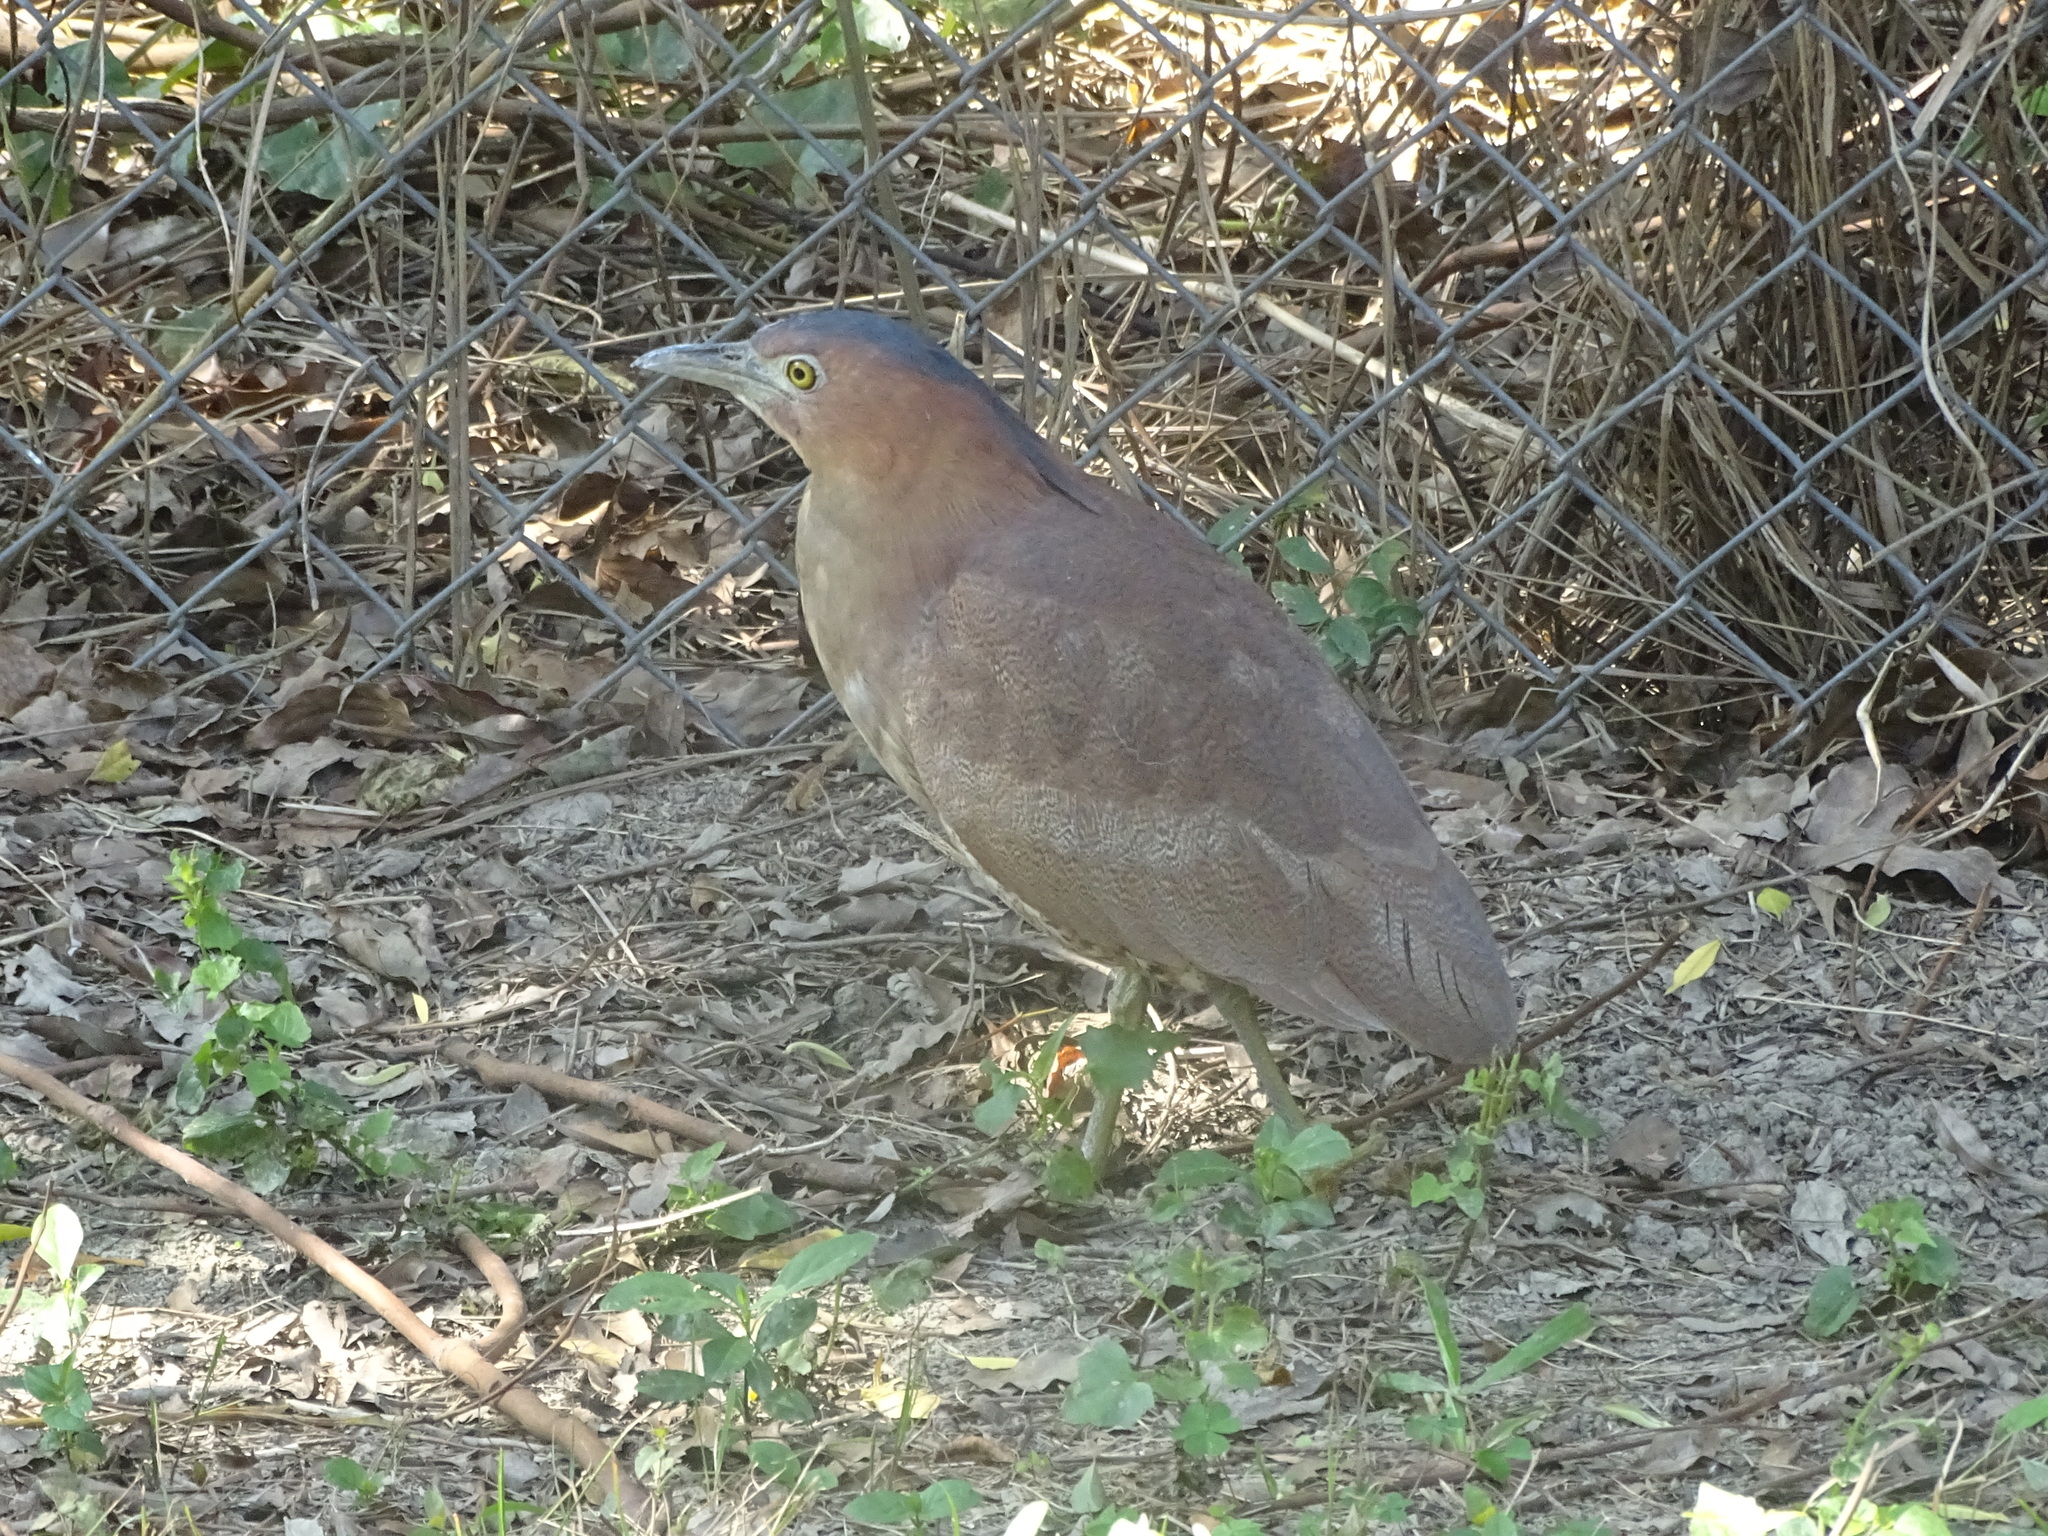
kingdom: Animalia
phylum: Chordata
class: Aves
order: Pelecaniformes
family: Ardeidae
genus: Gorsachius
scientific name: Gorsachius melanolophus
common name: Malayan night heron
